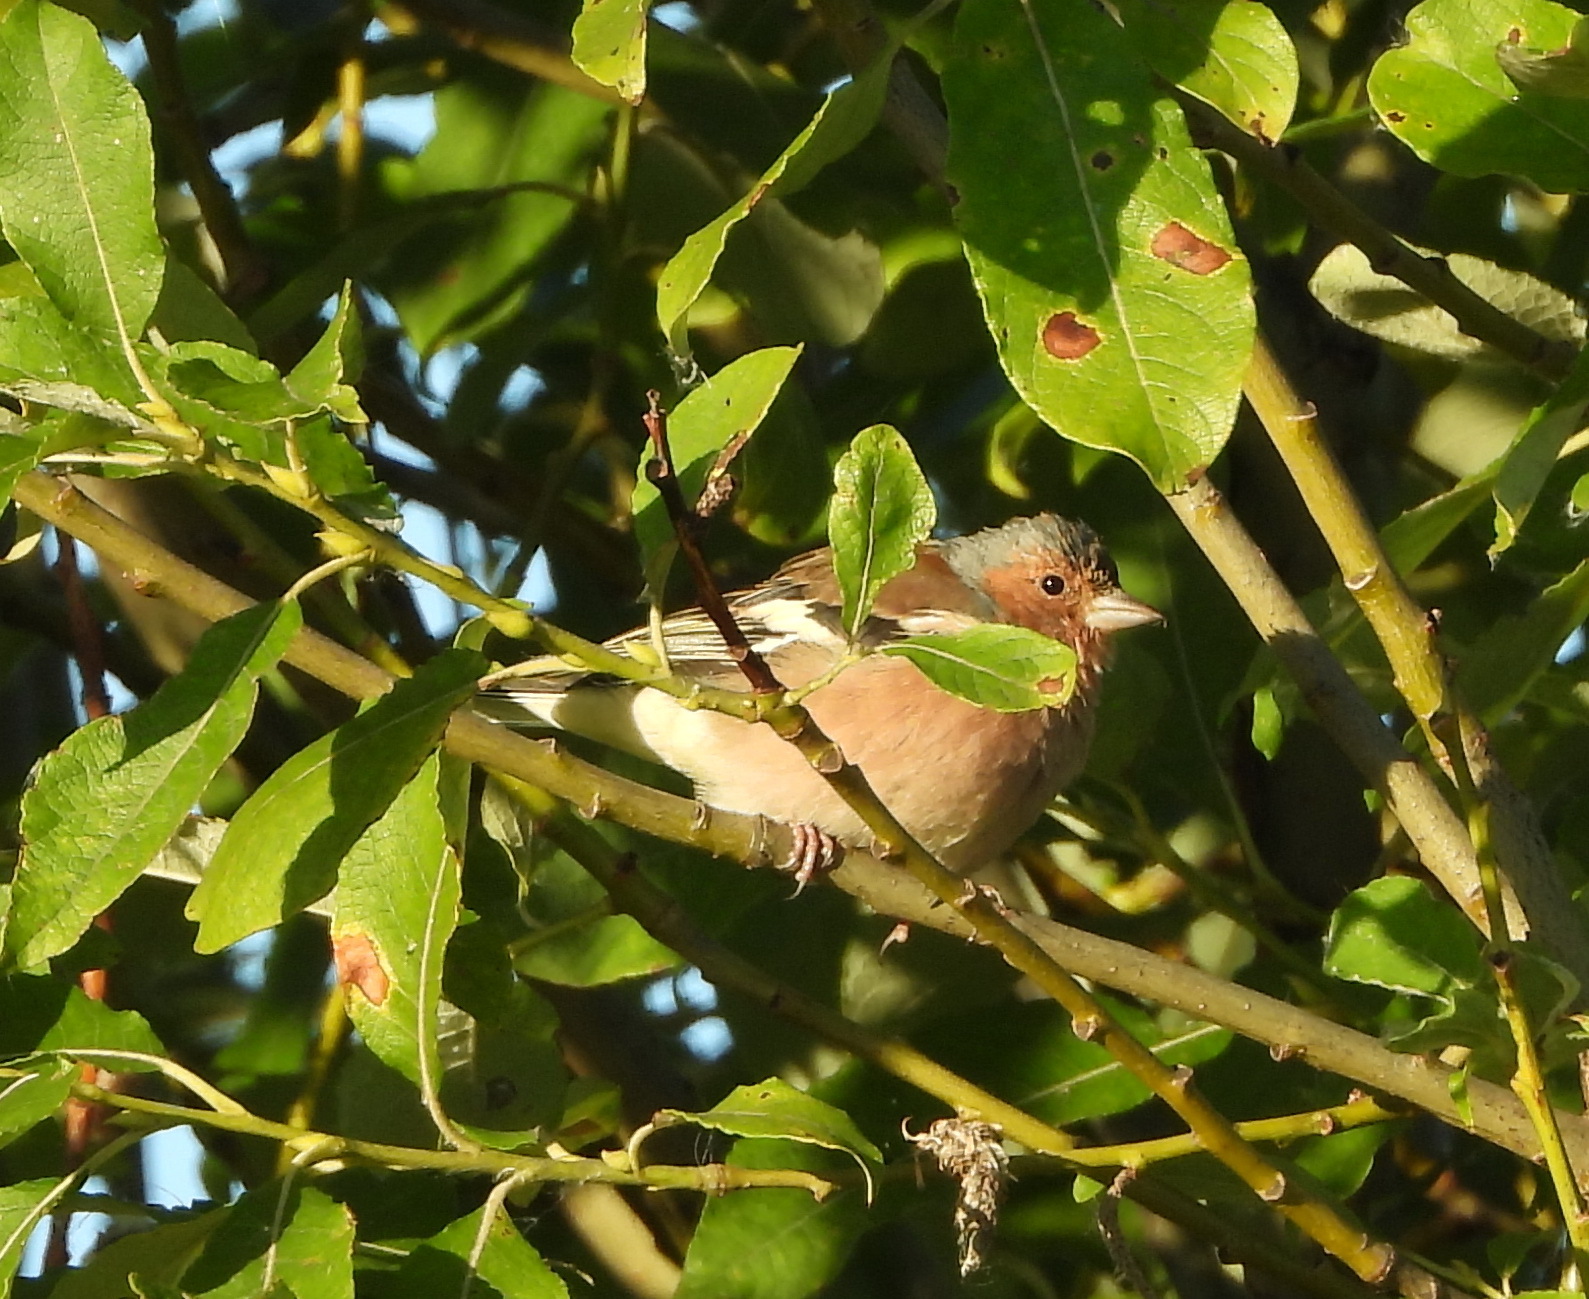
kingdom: Animalia
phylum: Chordata
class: Aves
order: Passeriformes
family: Fringillidae
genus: Fringilla
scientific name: Fringilla coelebs
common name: Common chaffinch
